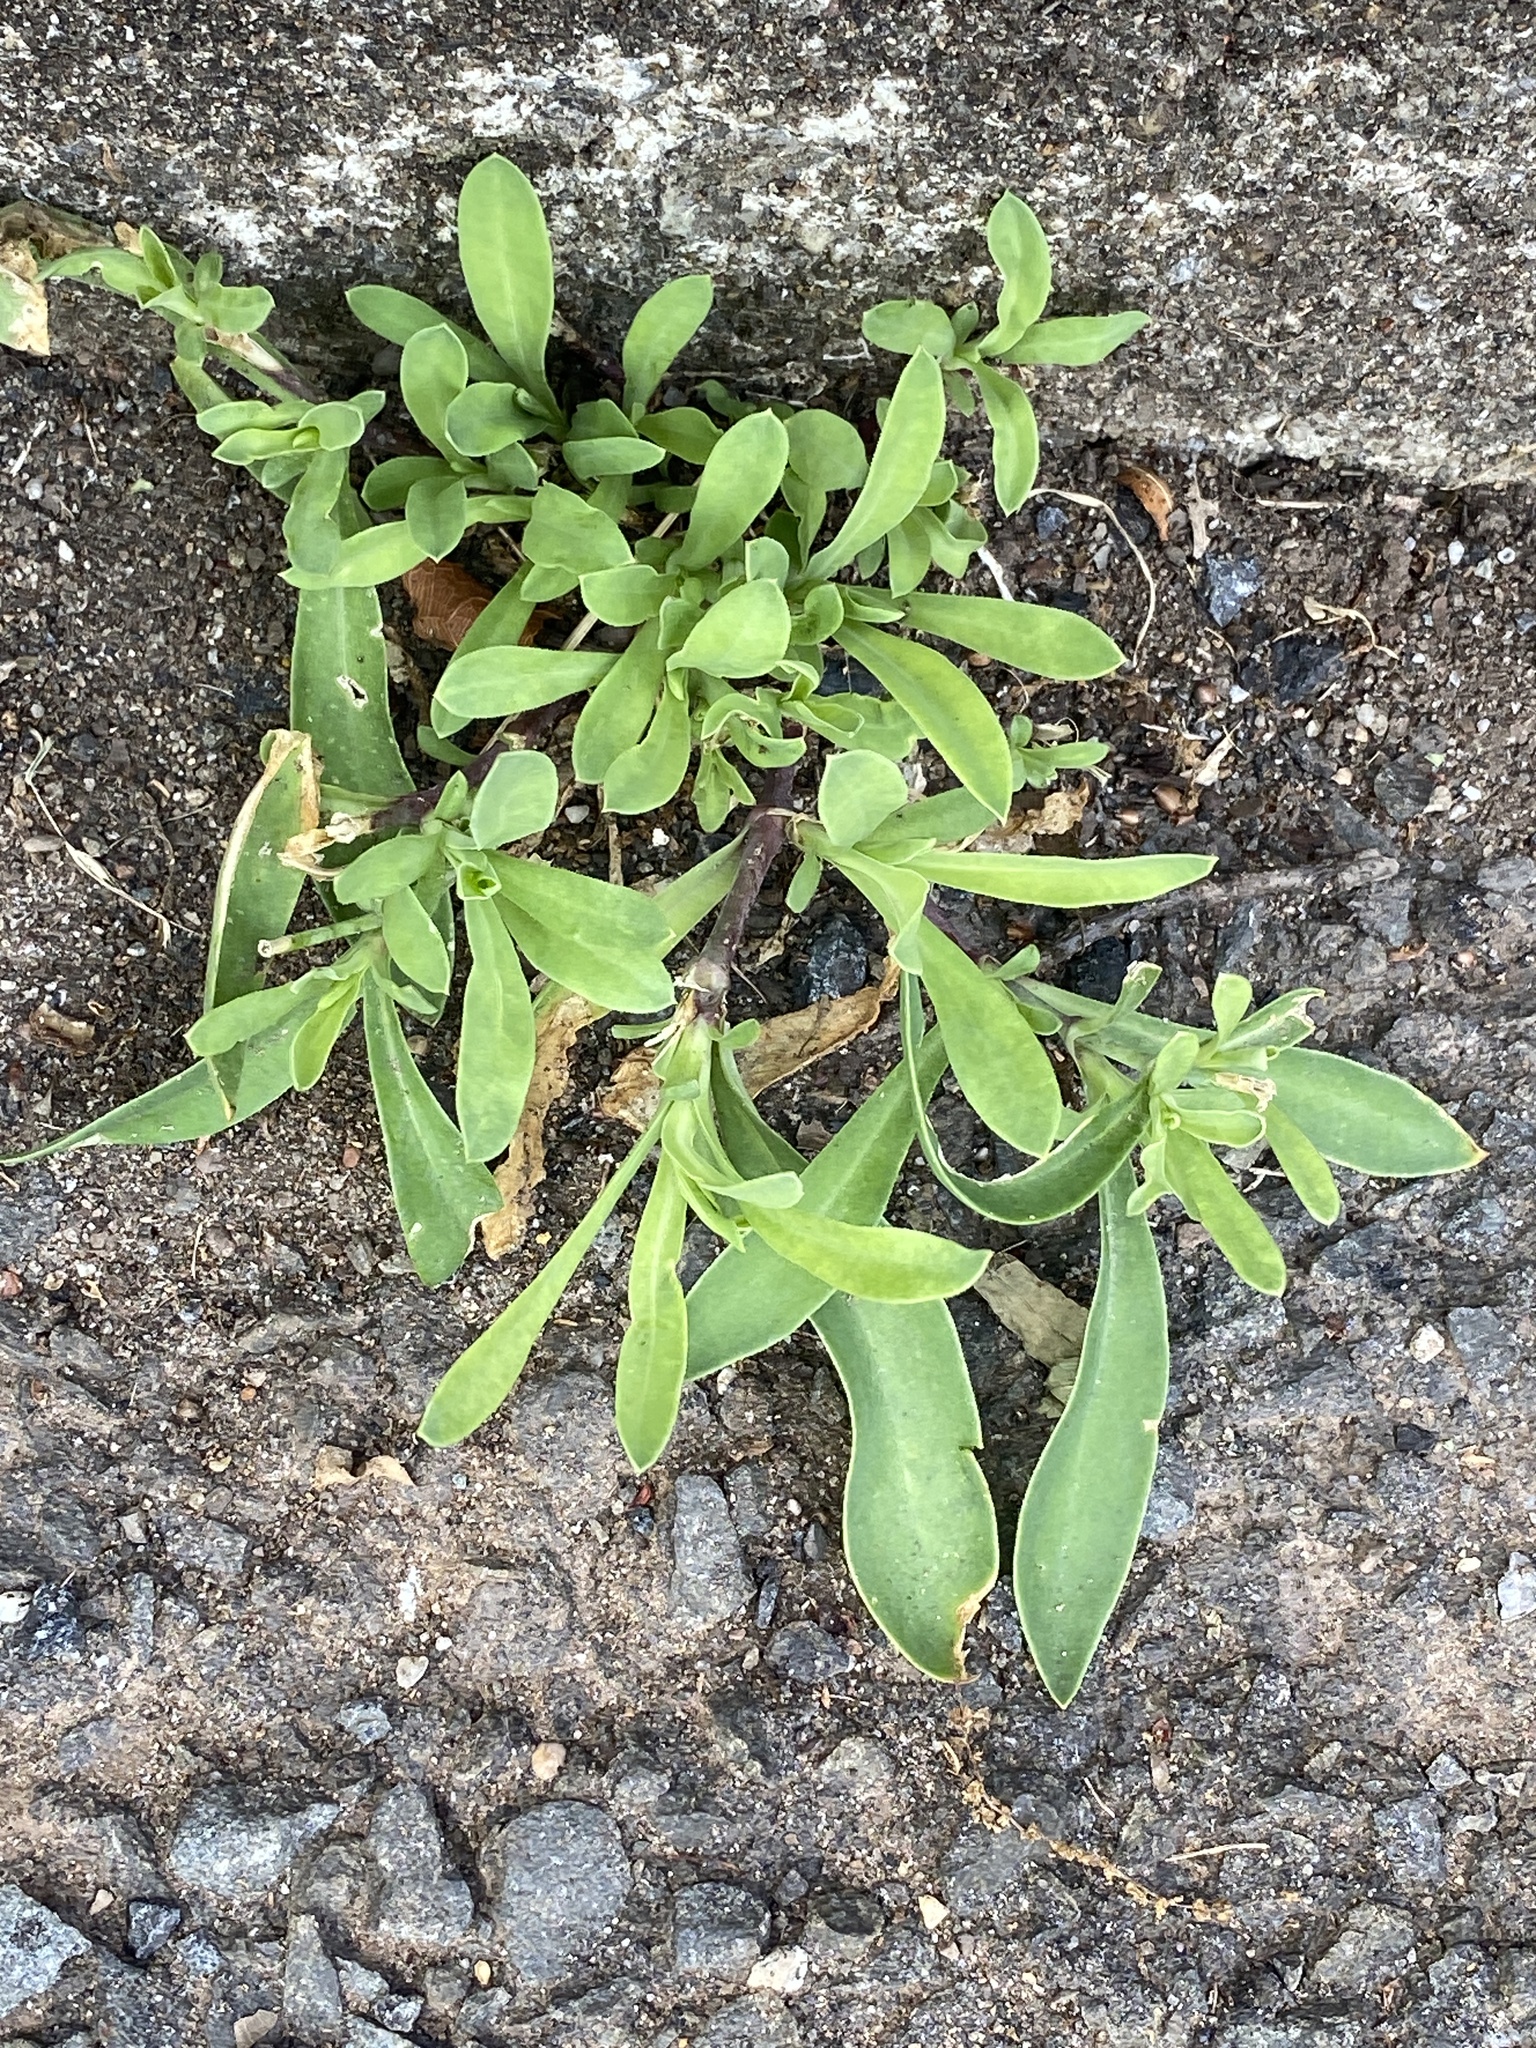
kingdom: Plantae
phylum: Tracheophyta
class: Magnoliopsida
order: Caryophyllales
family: Caryophyllaceae
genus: Silene
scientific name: Silene vulgaris
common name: Bladder campion
